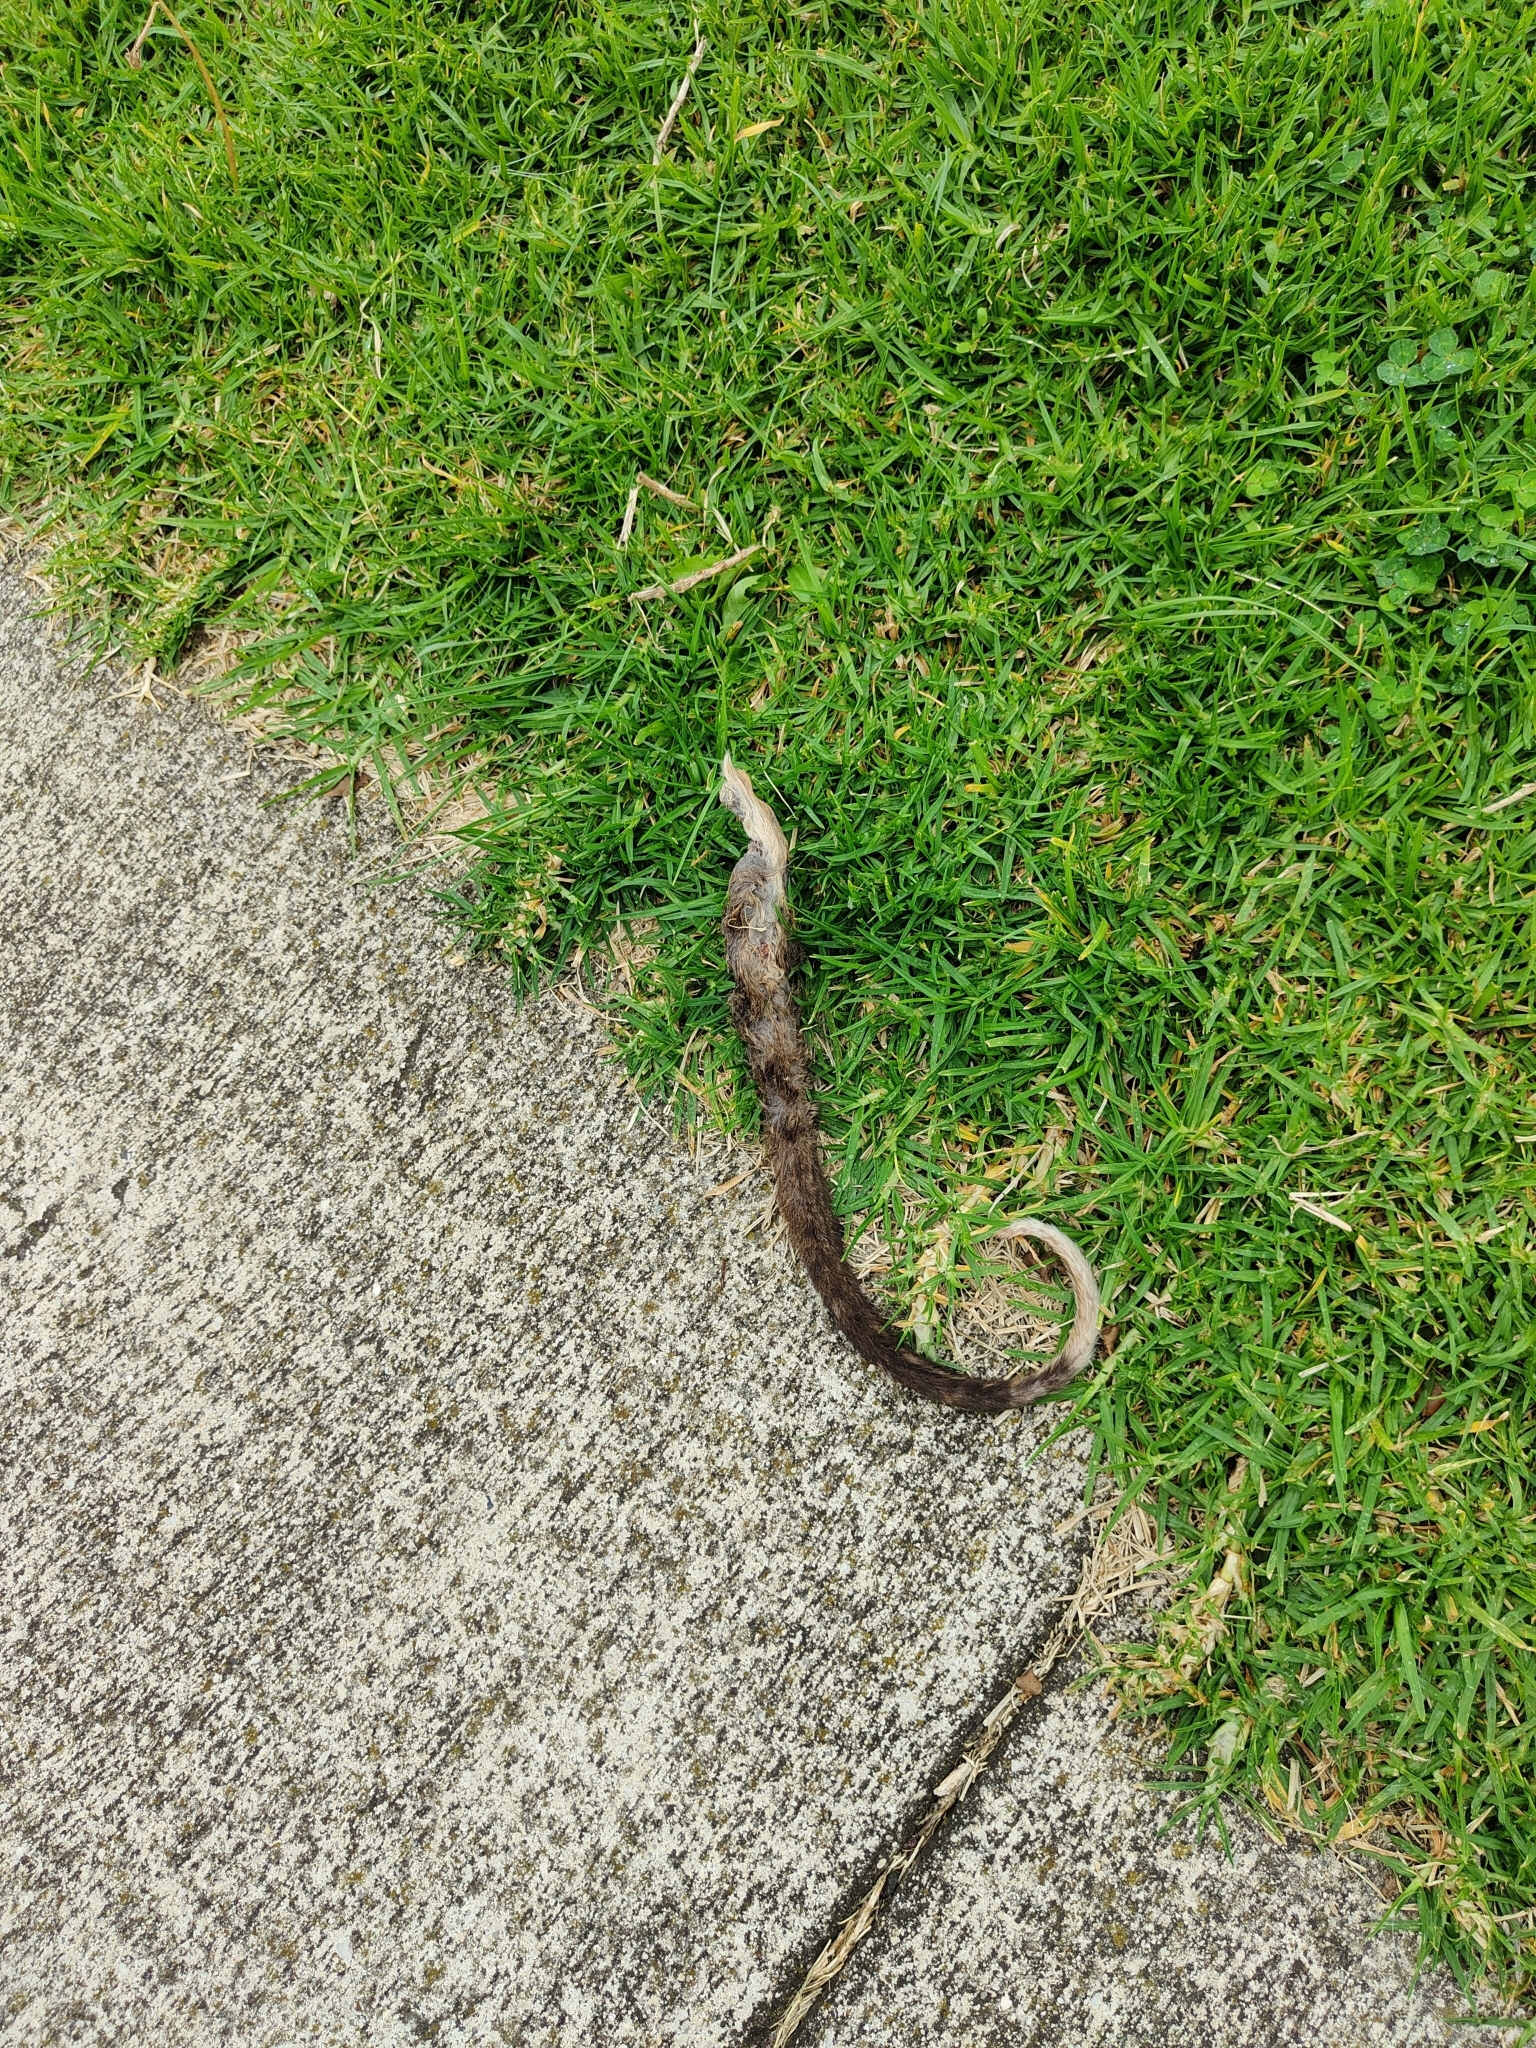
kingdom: Animalia
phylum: Chordata
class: Mammalia
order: Diprotodontia
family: Pseudocheiridae
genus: Pseudocheirus
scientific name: Pseudocheirus peregrinus
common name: Common ringtail possum
